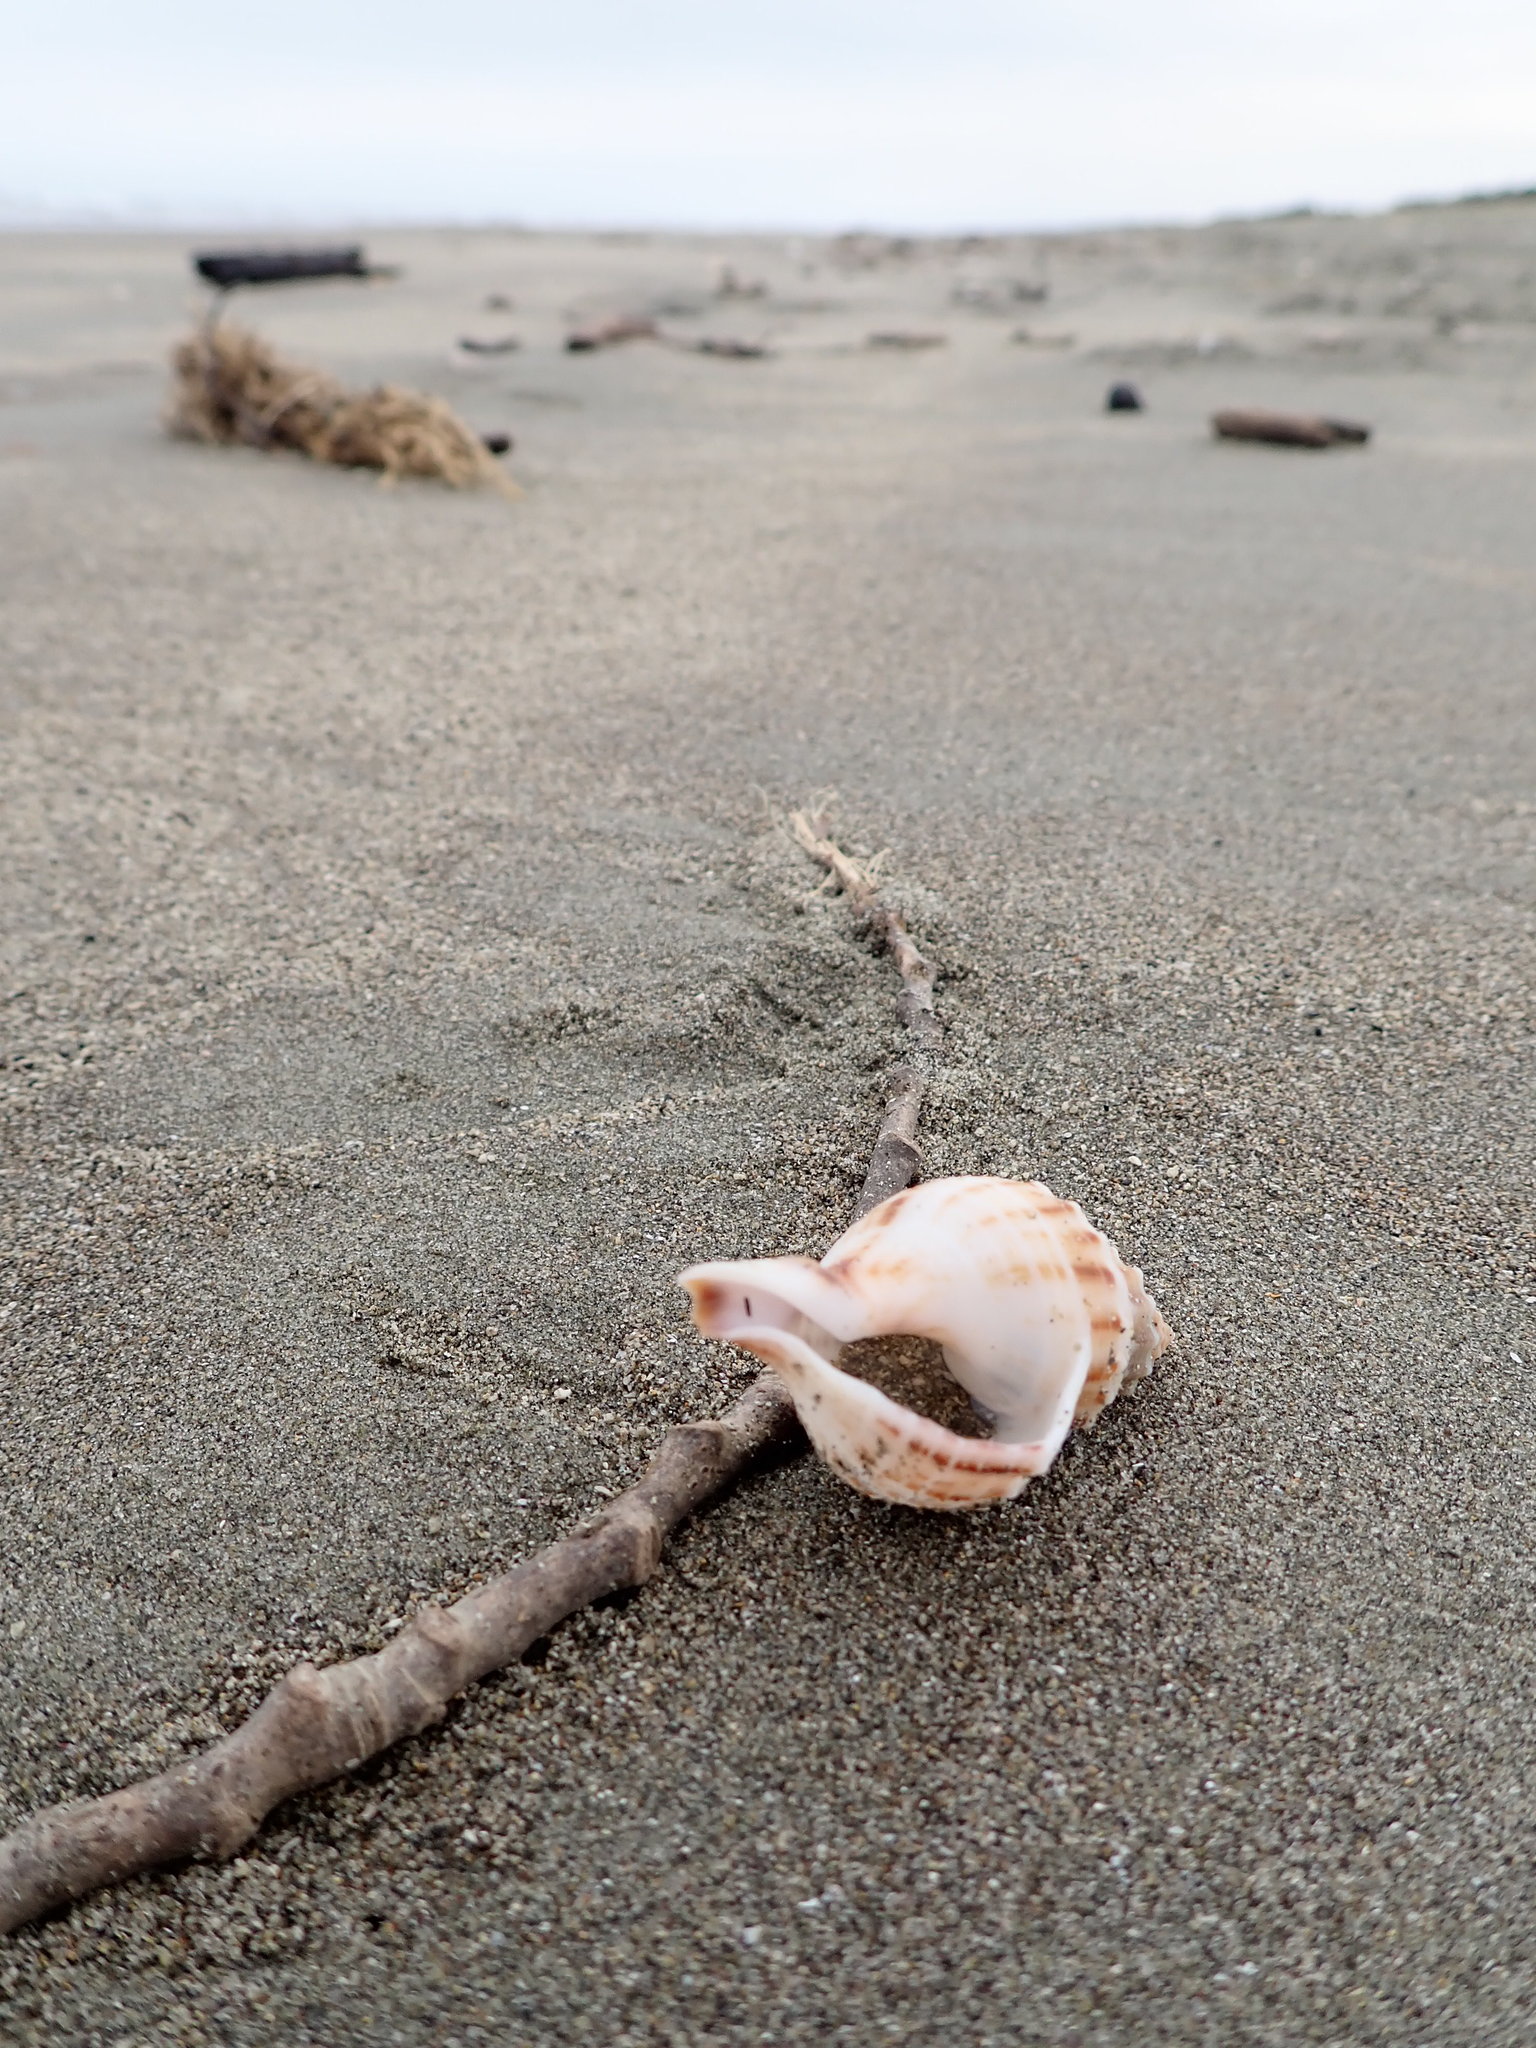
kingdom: Animalia
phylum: Mollusca
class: Gastropoda
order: Neogastropoda
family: Prosiphonidae
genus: Austrofusus
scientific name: Austrofusus glans
